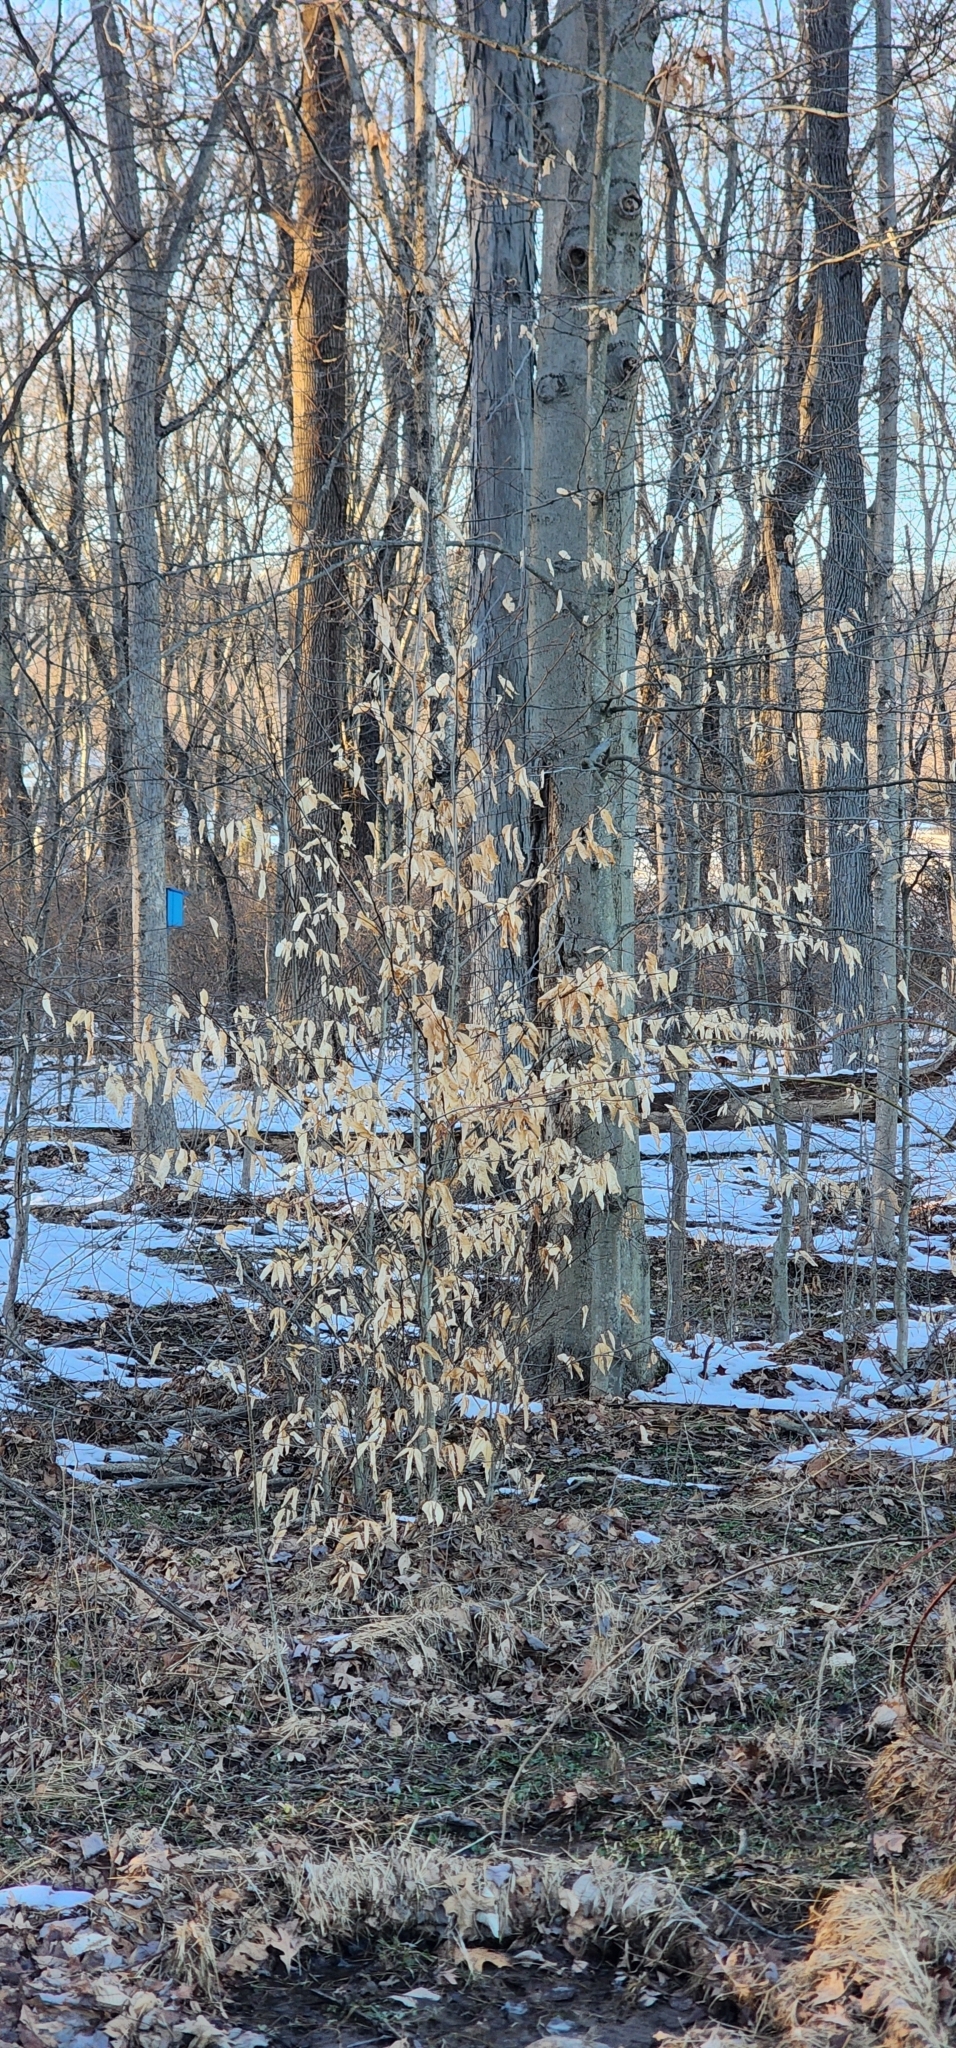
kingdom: Plantae
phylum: Tracheophyta
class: Magnoliopsida
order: Fagales
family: Fagaceae
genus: Fagus
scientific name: Fagus grandifolia
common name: American beech
